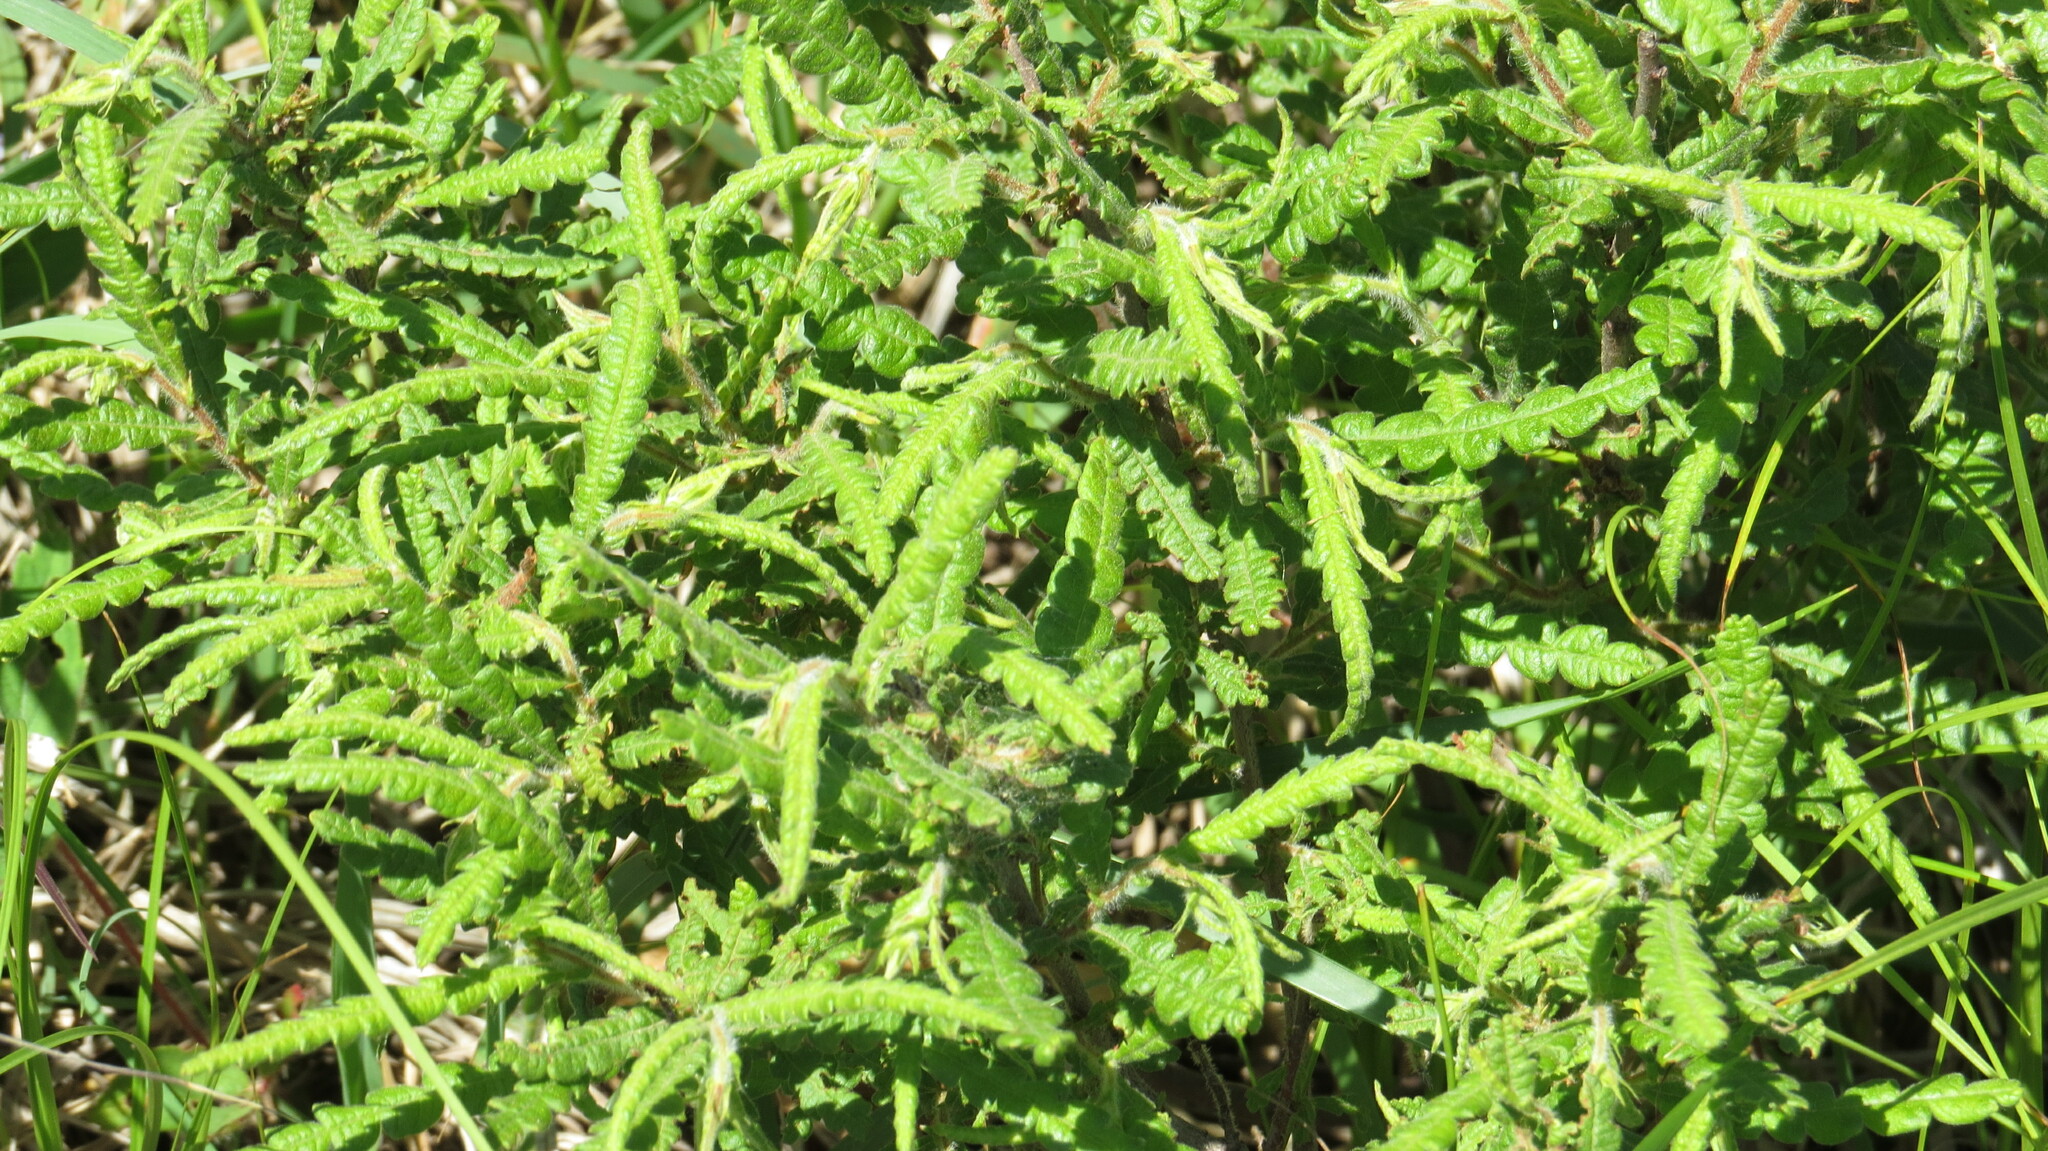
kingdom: Plantae
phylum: Tracheophyta
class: Magnoliopsida
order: Fagales
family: Myricaceae
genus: Comptonia
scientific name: Comptonia peregrina
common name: Sweet-fern
